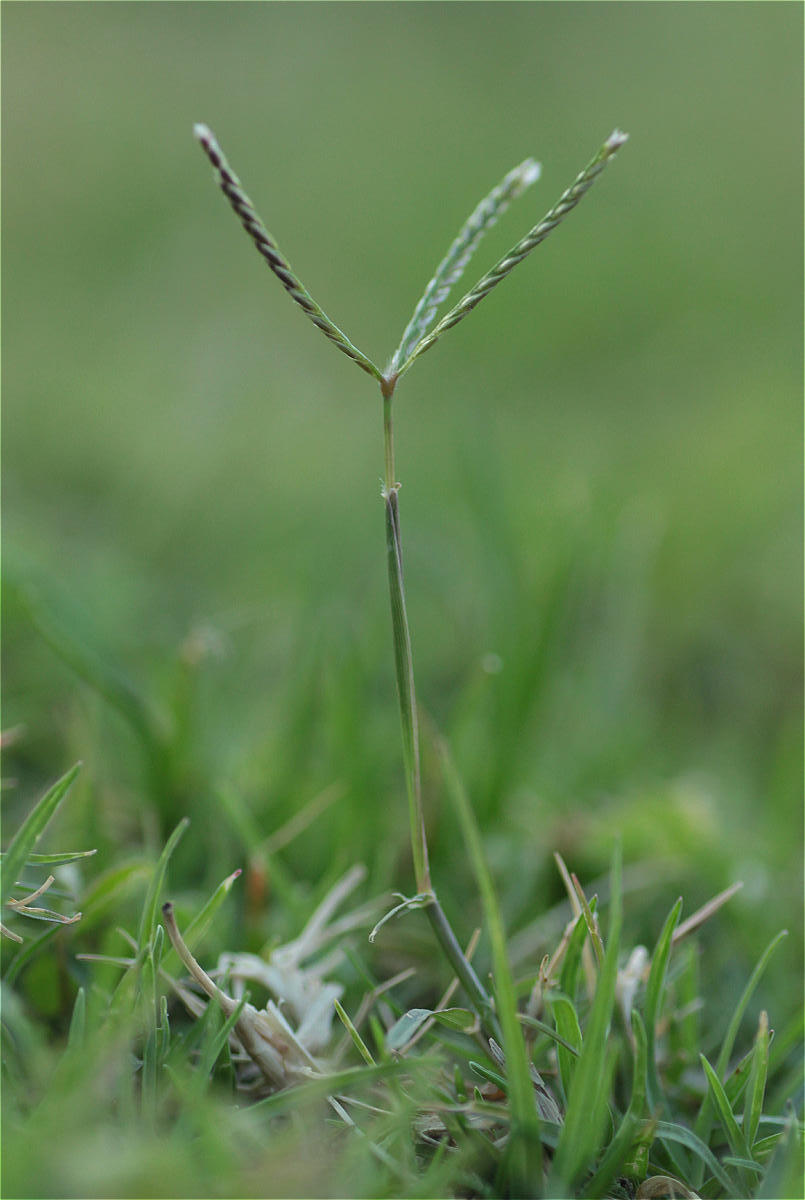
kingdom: Plantae
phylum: Tracheophyta
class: Liliopsida
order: Poales
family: Poaceae
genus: Cynodon
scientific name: Cynodon dactylon
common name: Bermuda grass
